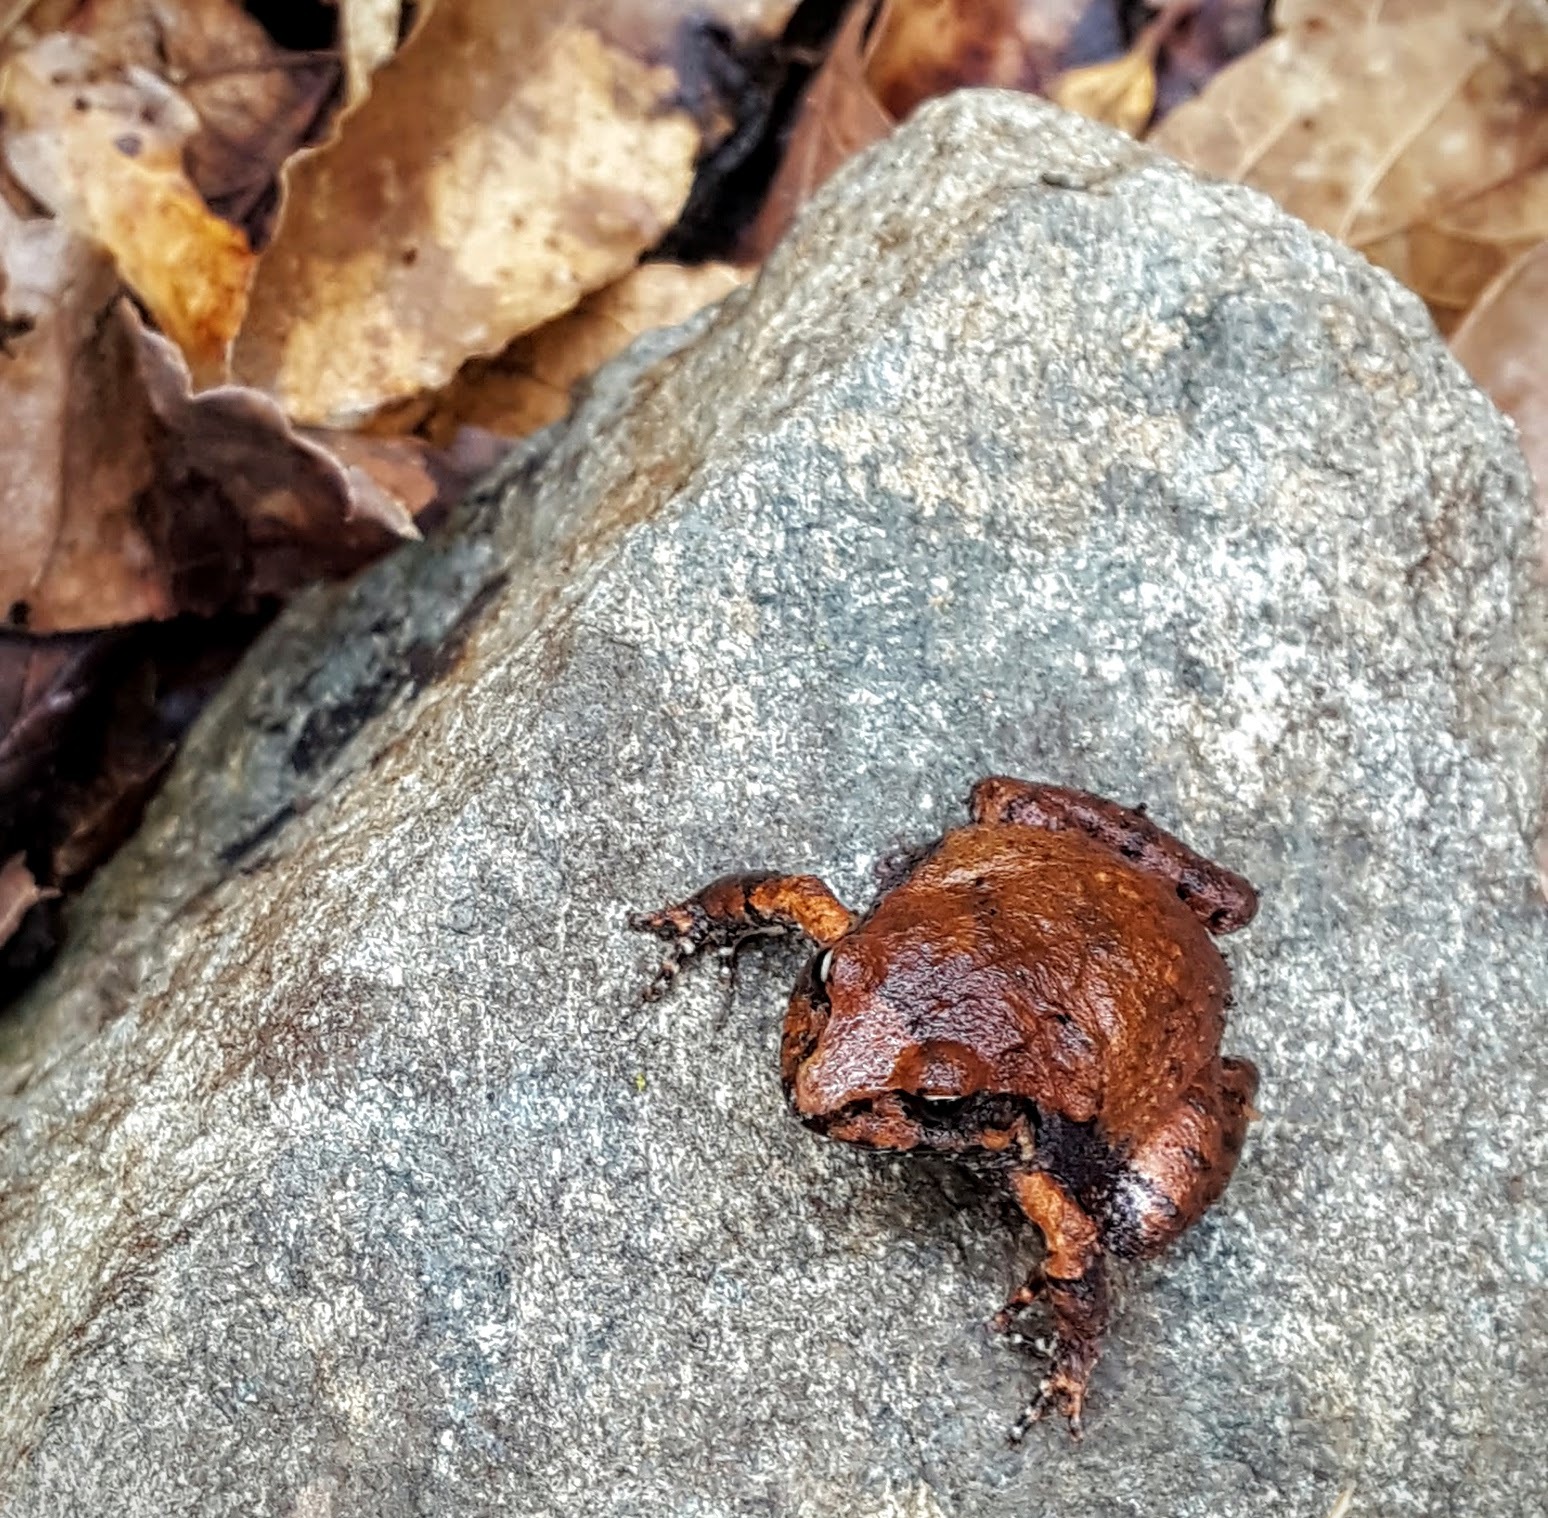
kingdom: Animalia
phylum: Chordata
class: Amphibia
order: Anura
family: Craugastoridae
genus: Craugastor
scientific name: Craugastor mexicanus
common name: Mexican robber frog
